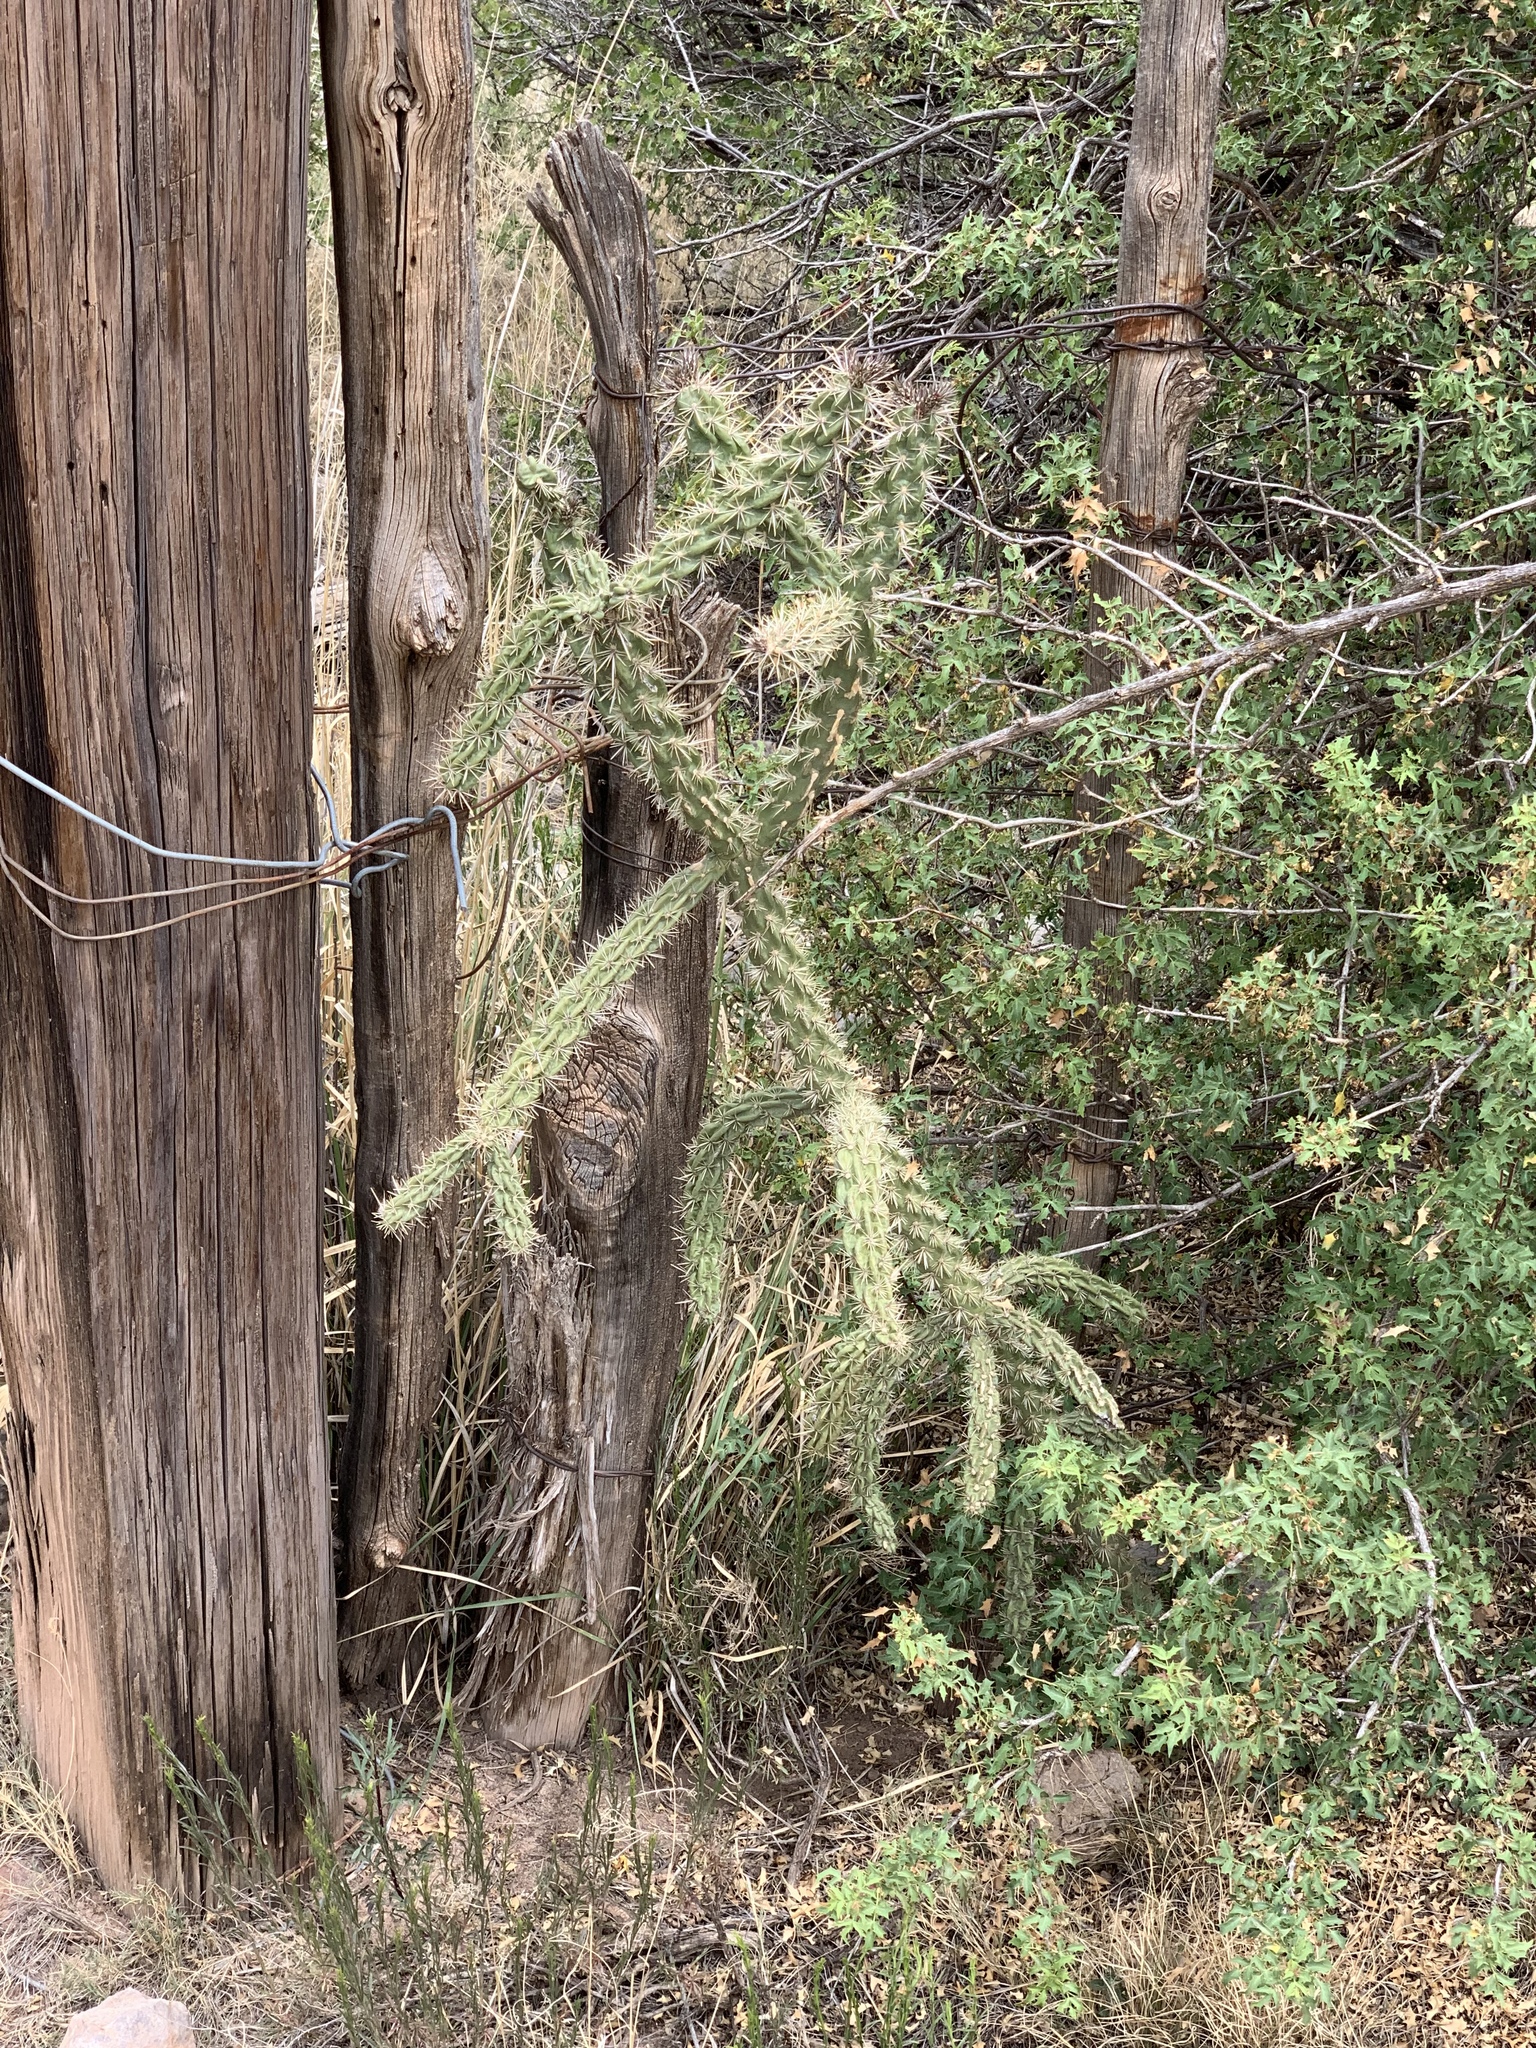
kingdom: Plantae
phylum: Tracheophyta
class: Magnoliopsida
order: Caryophyllales
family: Cactaceae
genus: Cylindropuntia
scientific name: Cylindropuntia imbricata
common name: Candelabrum cactus
